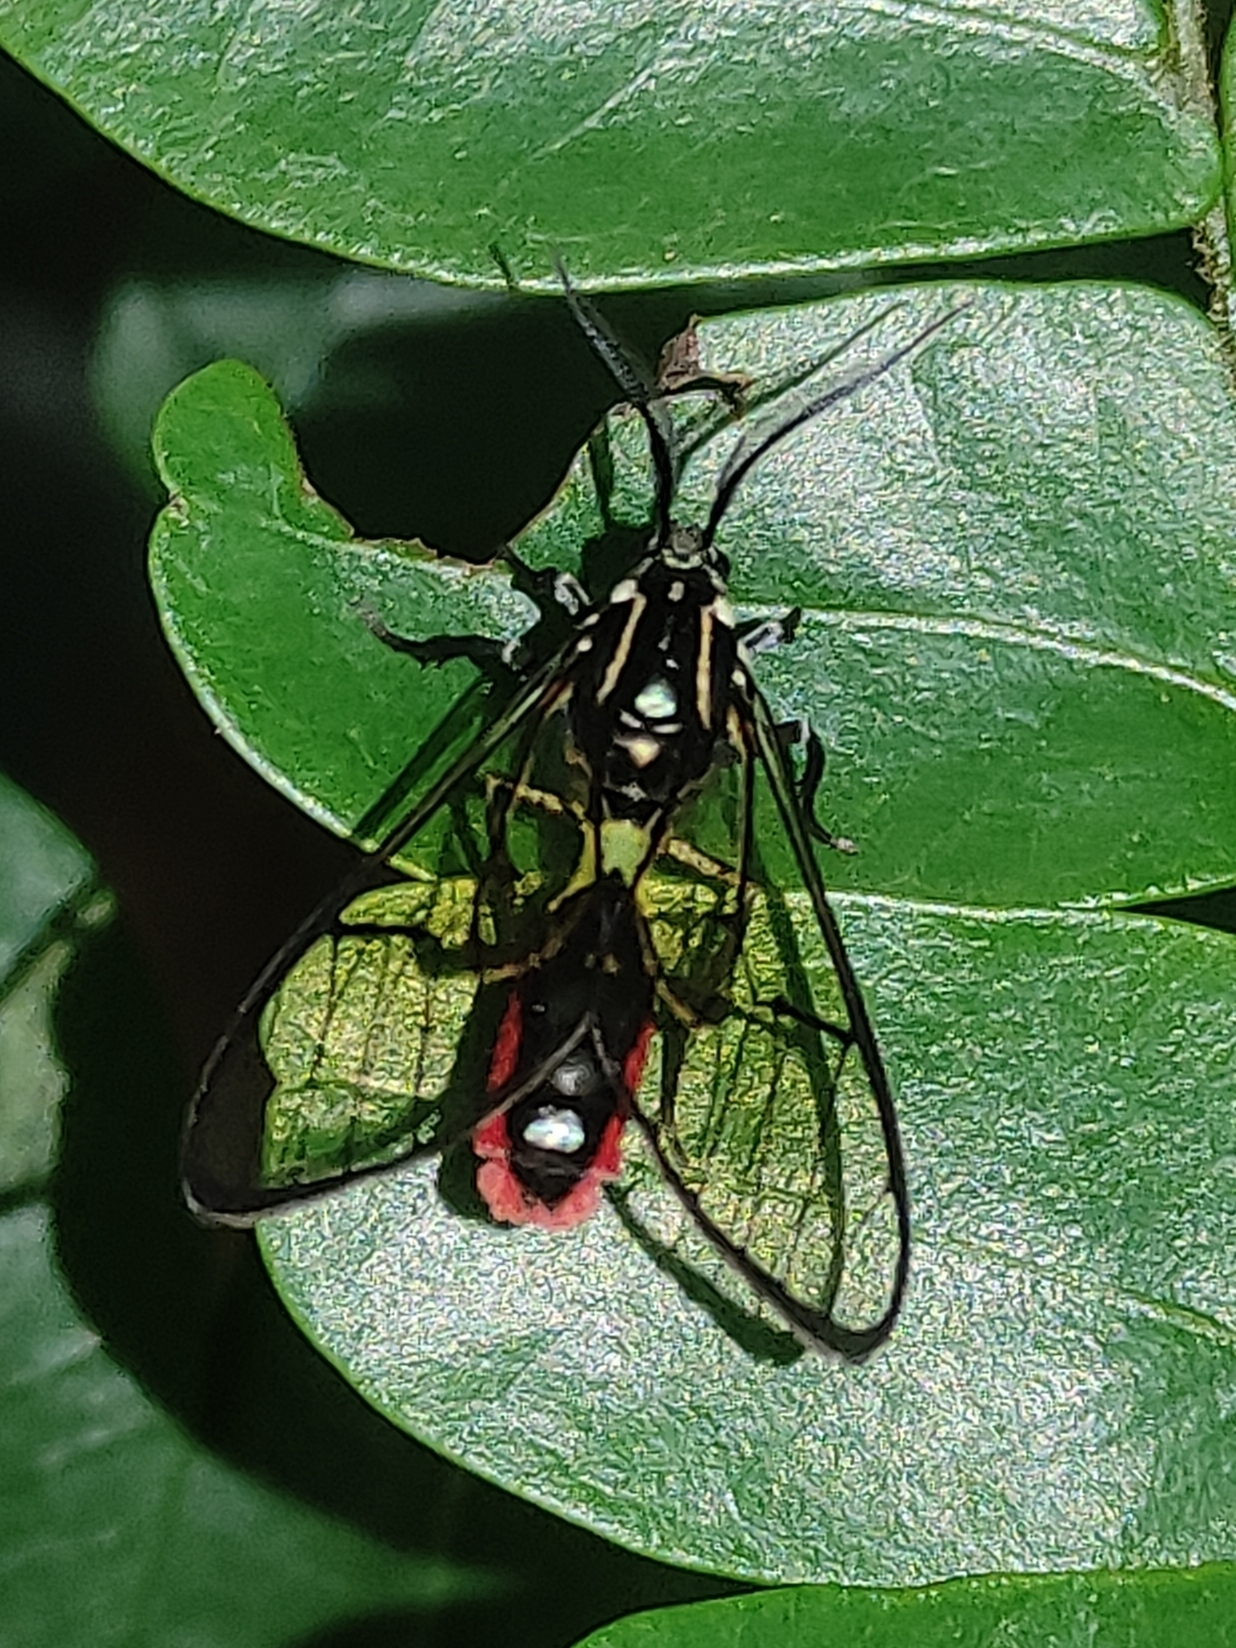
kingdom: Animalia
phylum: Arthropoda
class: Insecta
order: Lepidoptera
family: Erebidae
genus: Argyroeides
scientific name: Argyroeides ophion
